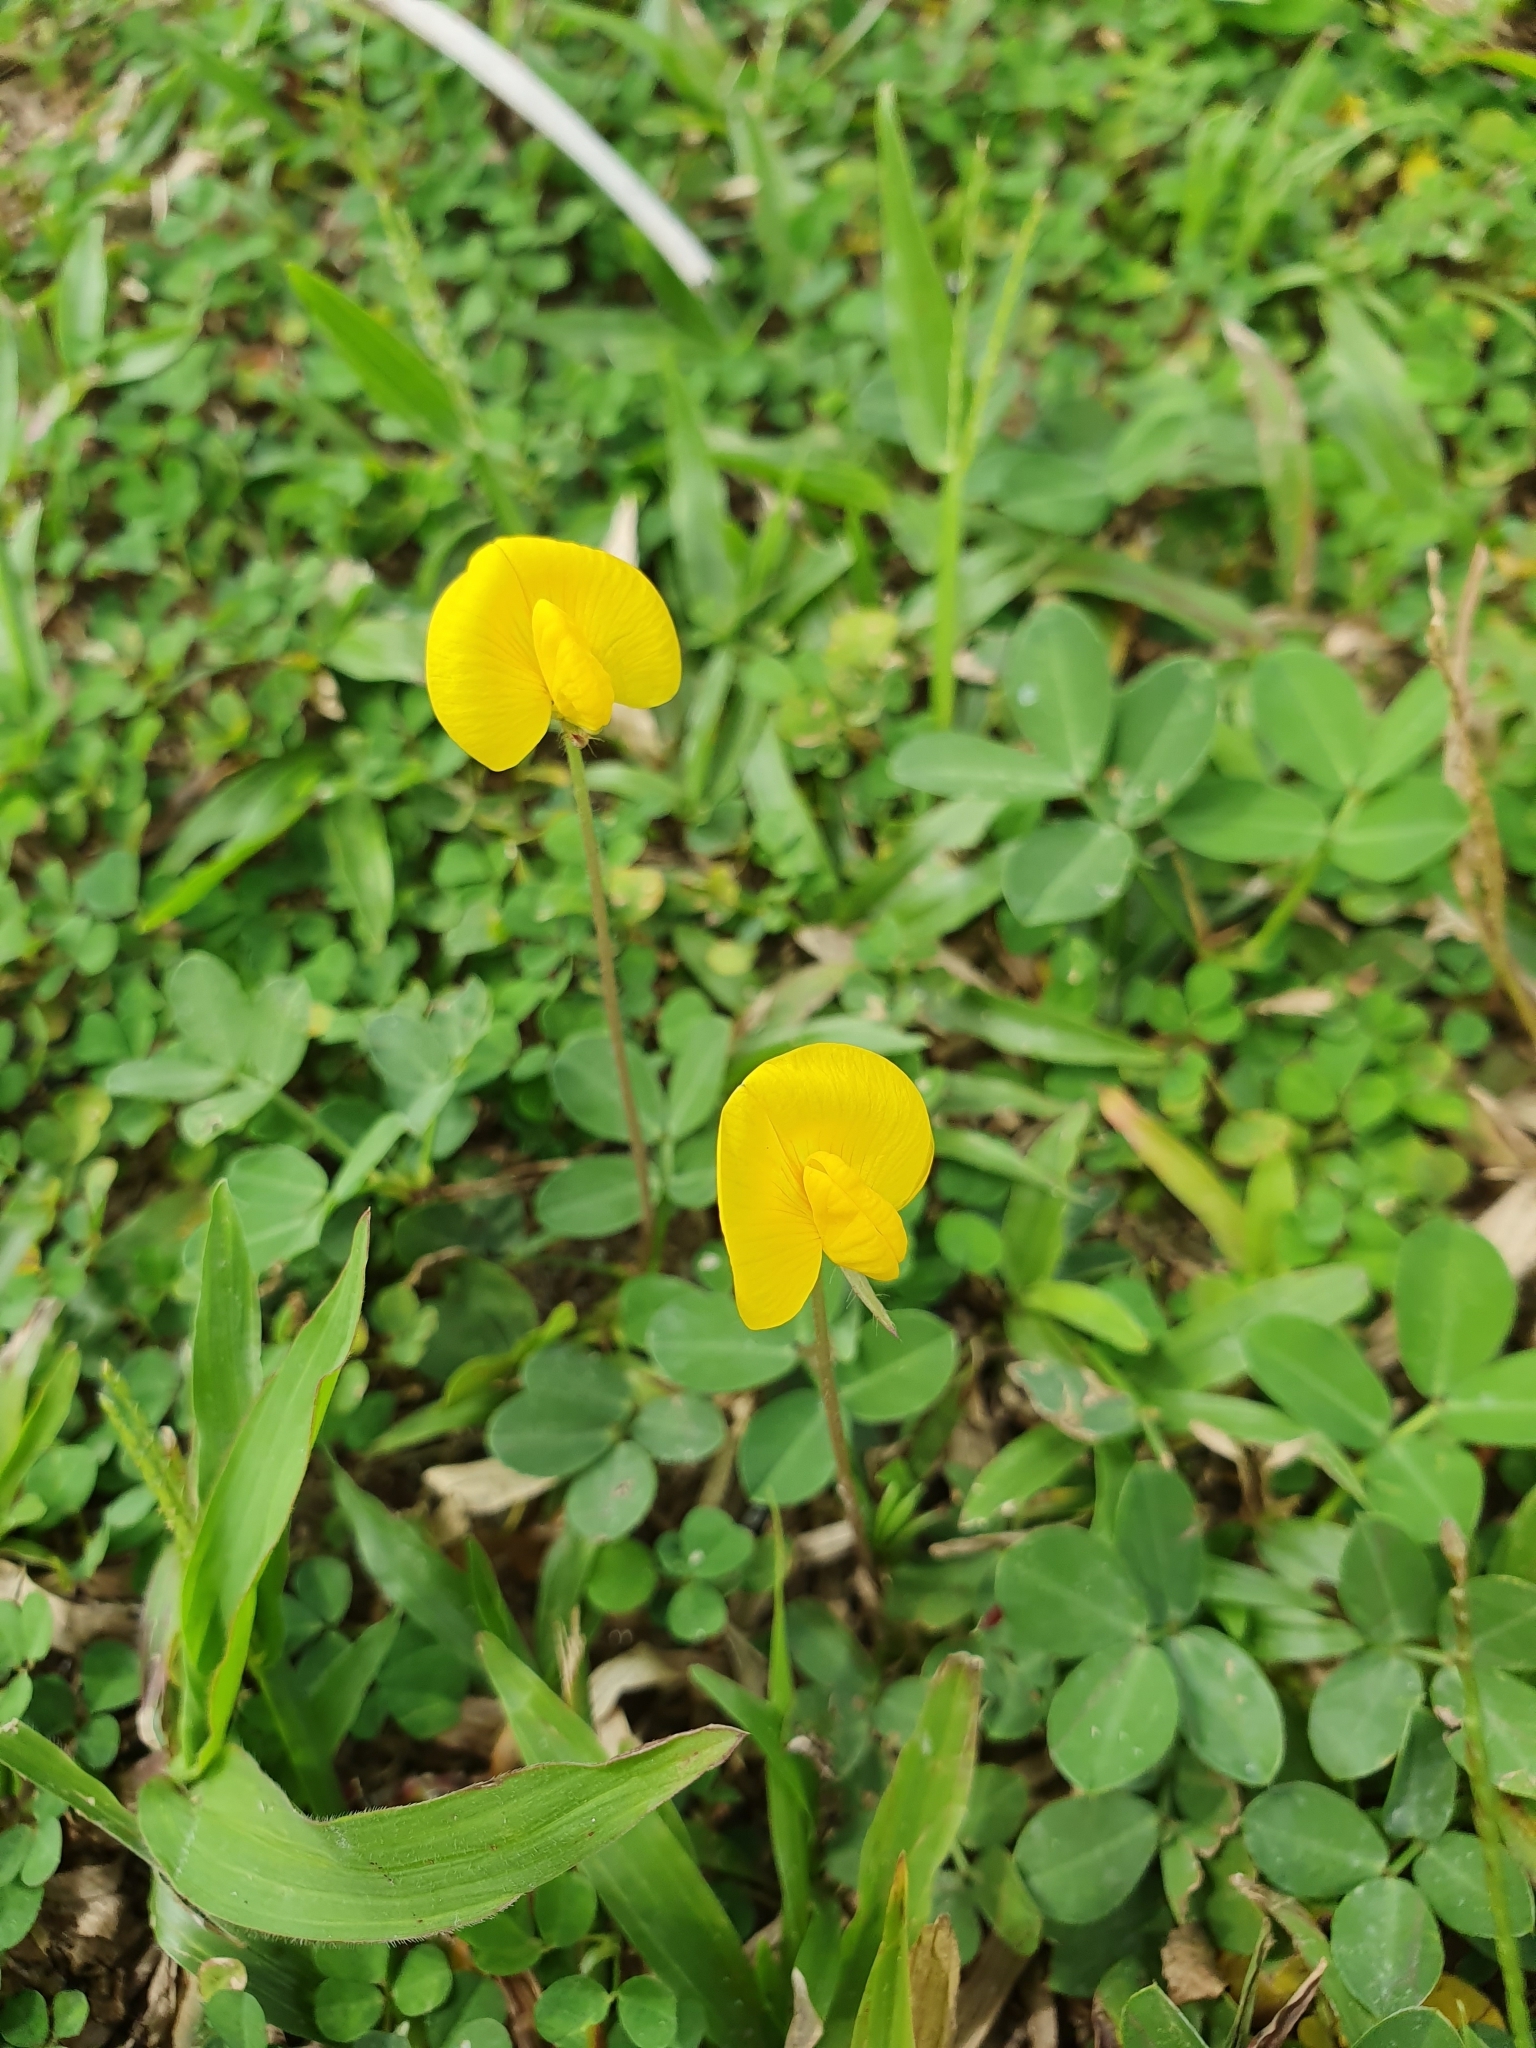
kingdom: Plantae
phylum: Tracheophyta
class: Magnoliopsida
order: Fabales
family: Fabaceae
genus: Arachis
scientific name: Arachis pintoi
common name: Pinto peanut
